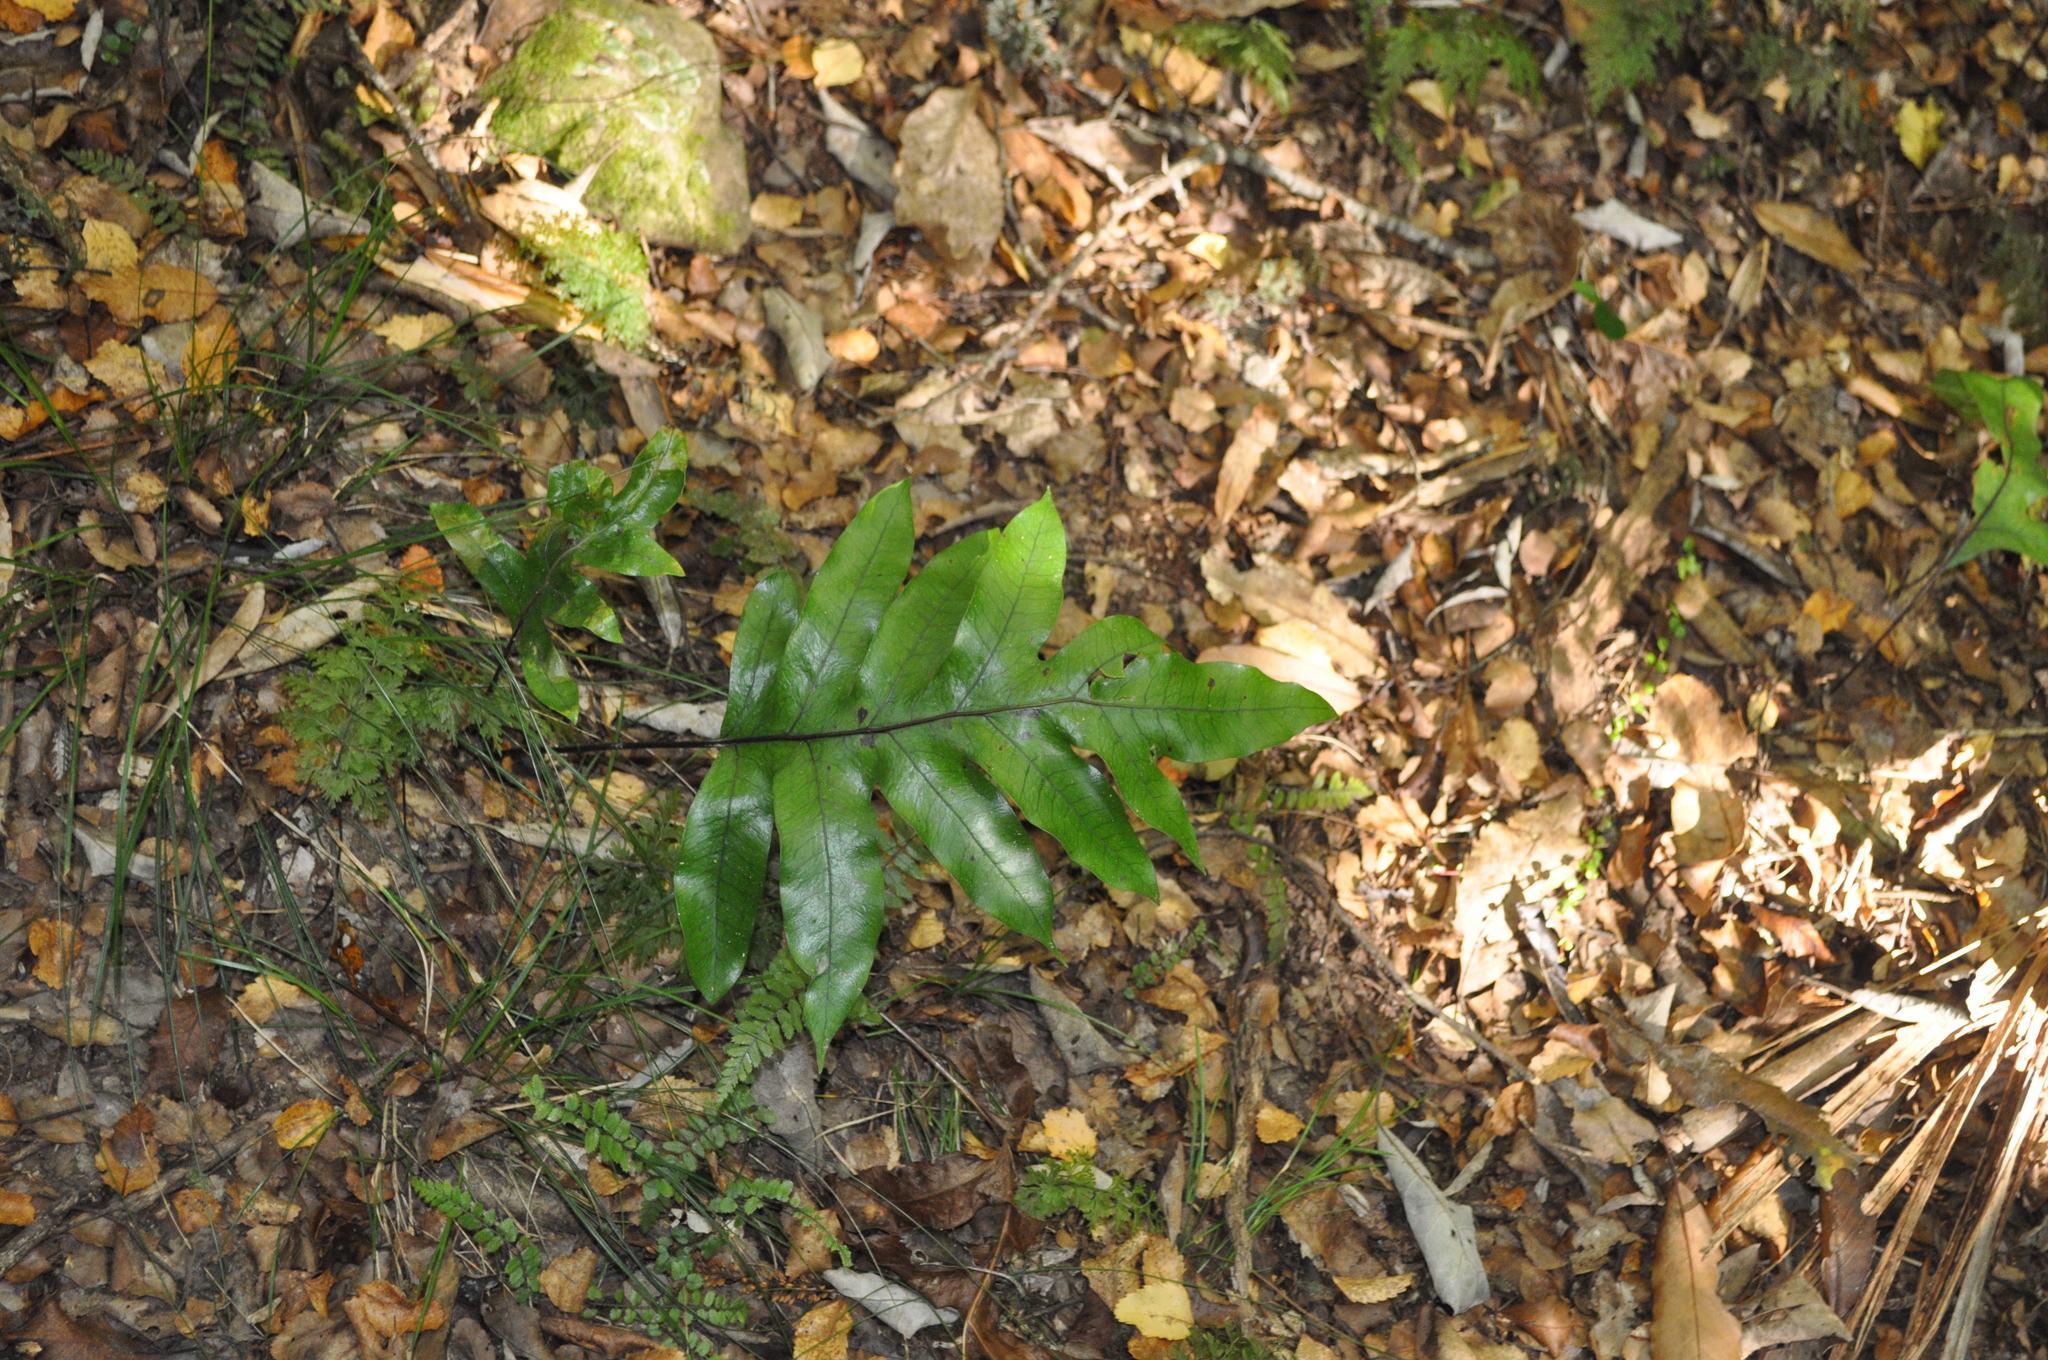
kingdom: Plantae
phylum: Tracheophyta
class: Polypodiopsida
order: Polypodiales
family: Polypodiaceae
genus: Lecanopteris
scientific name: Lecanopteris pustulata
